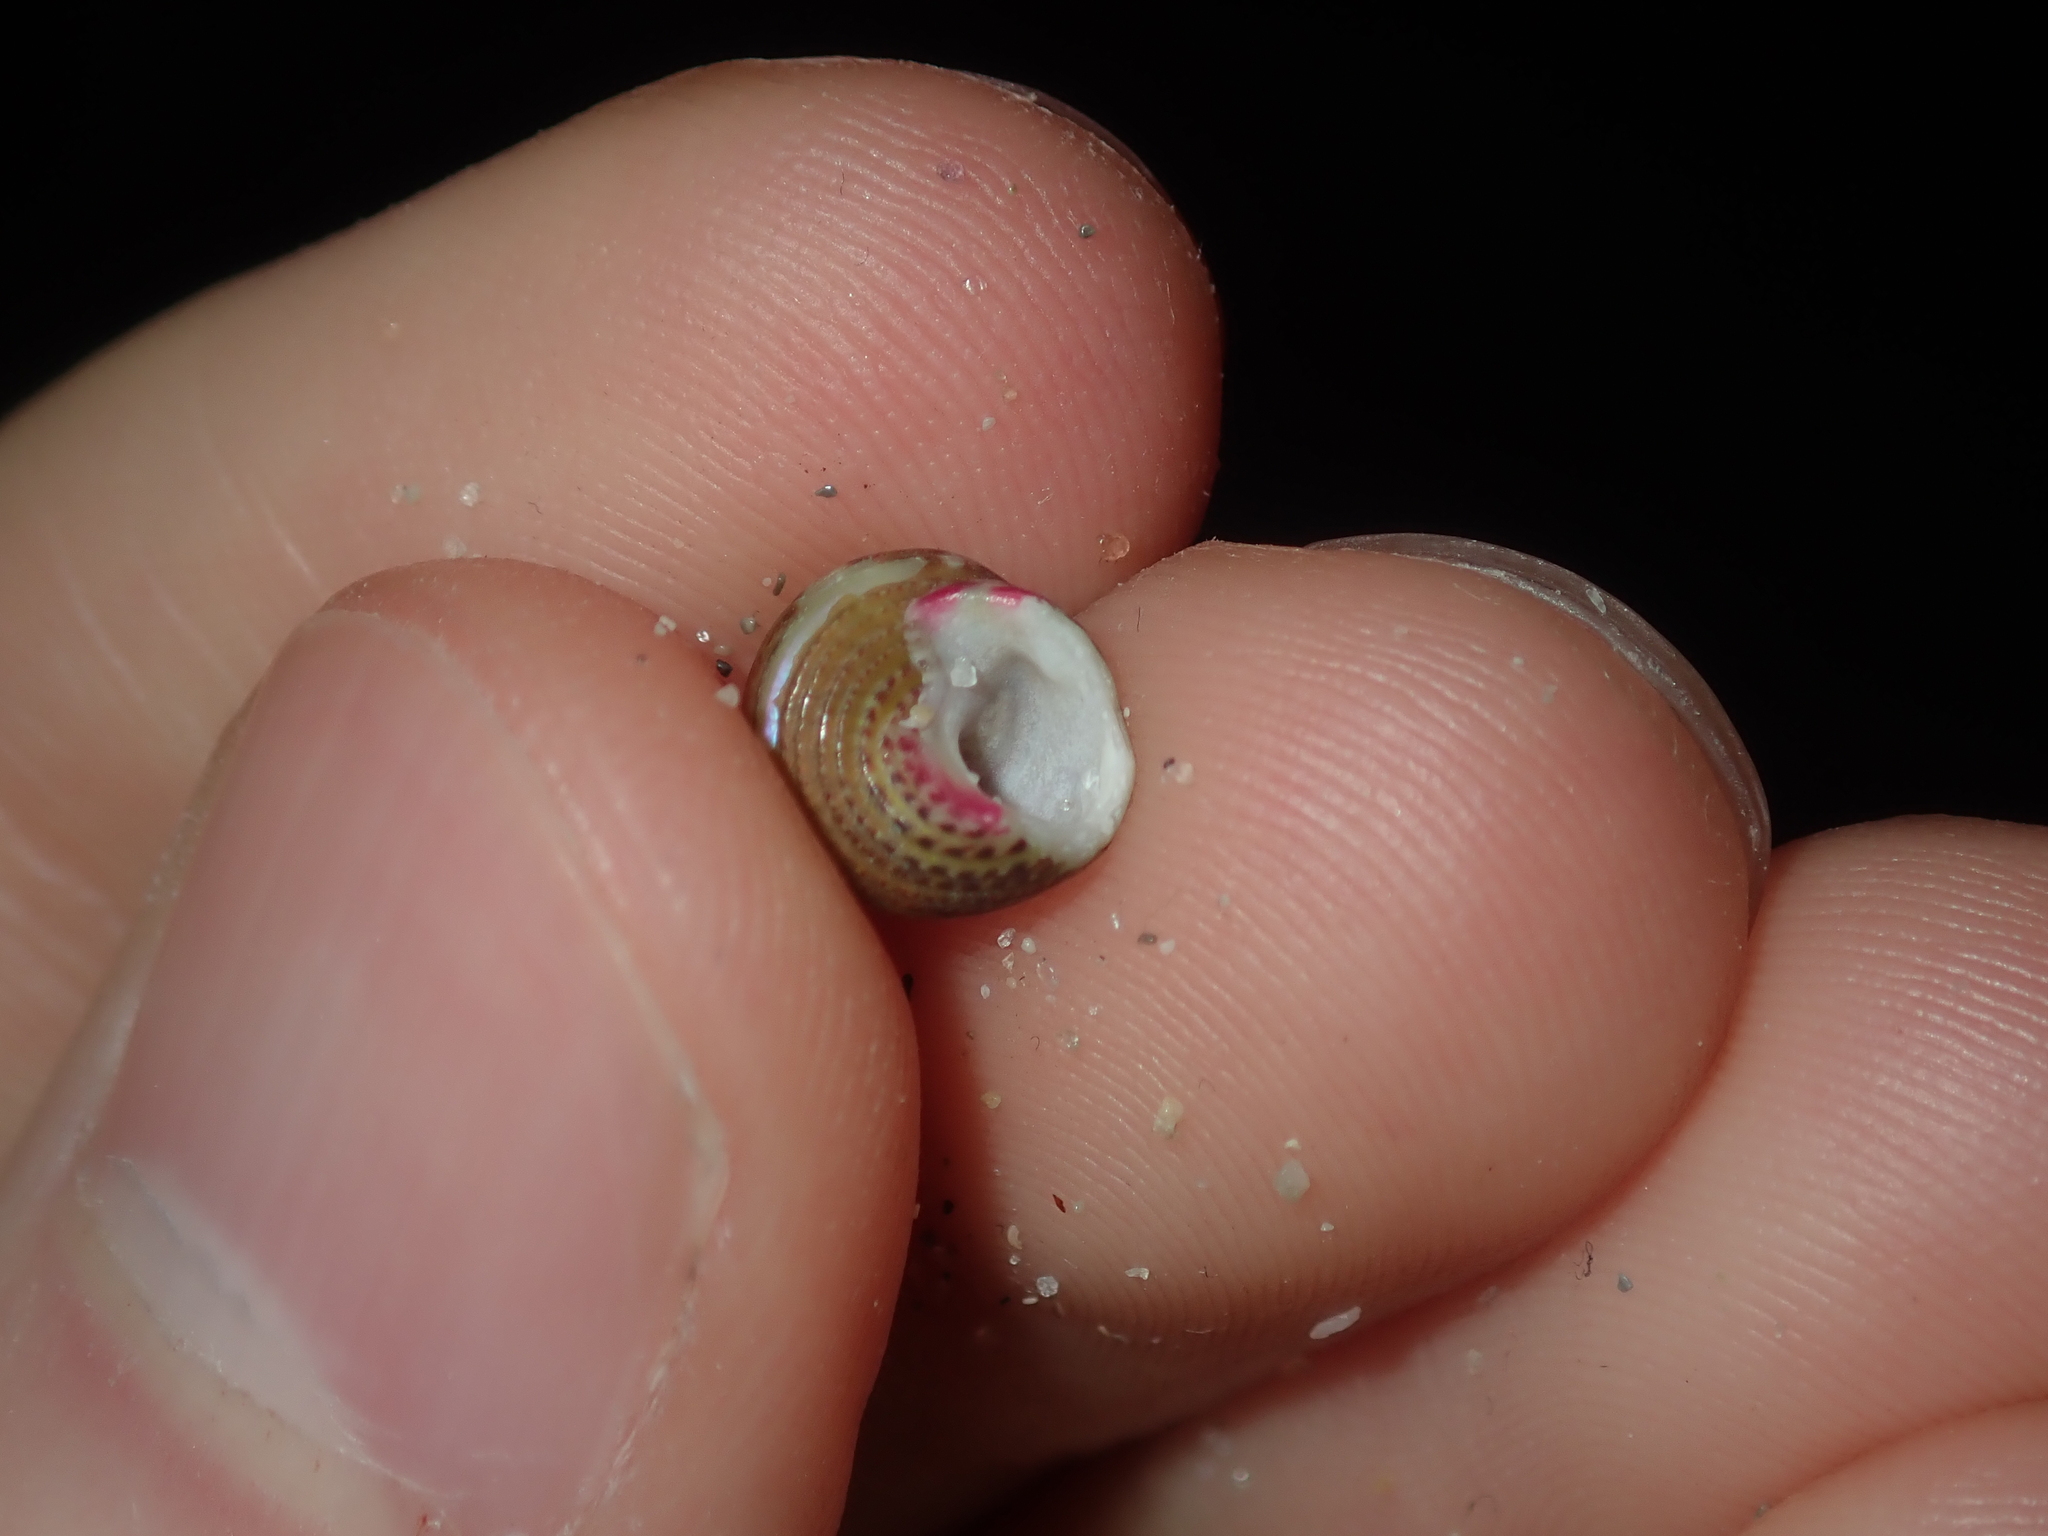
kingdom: Animalia
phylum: Mollusca
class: Gastropoda
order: Trochida
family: Trochidae
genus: Prothalotia
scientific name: Prothalotia pulcherrima
